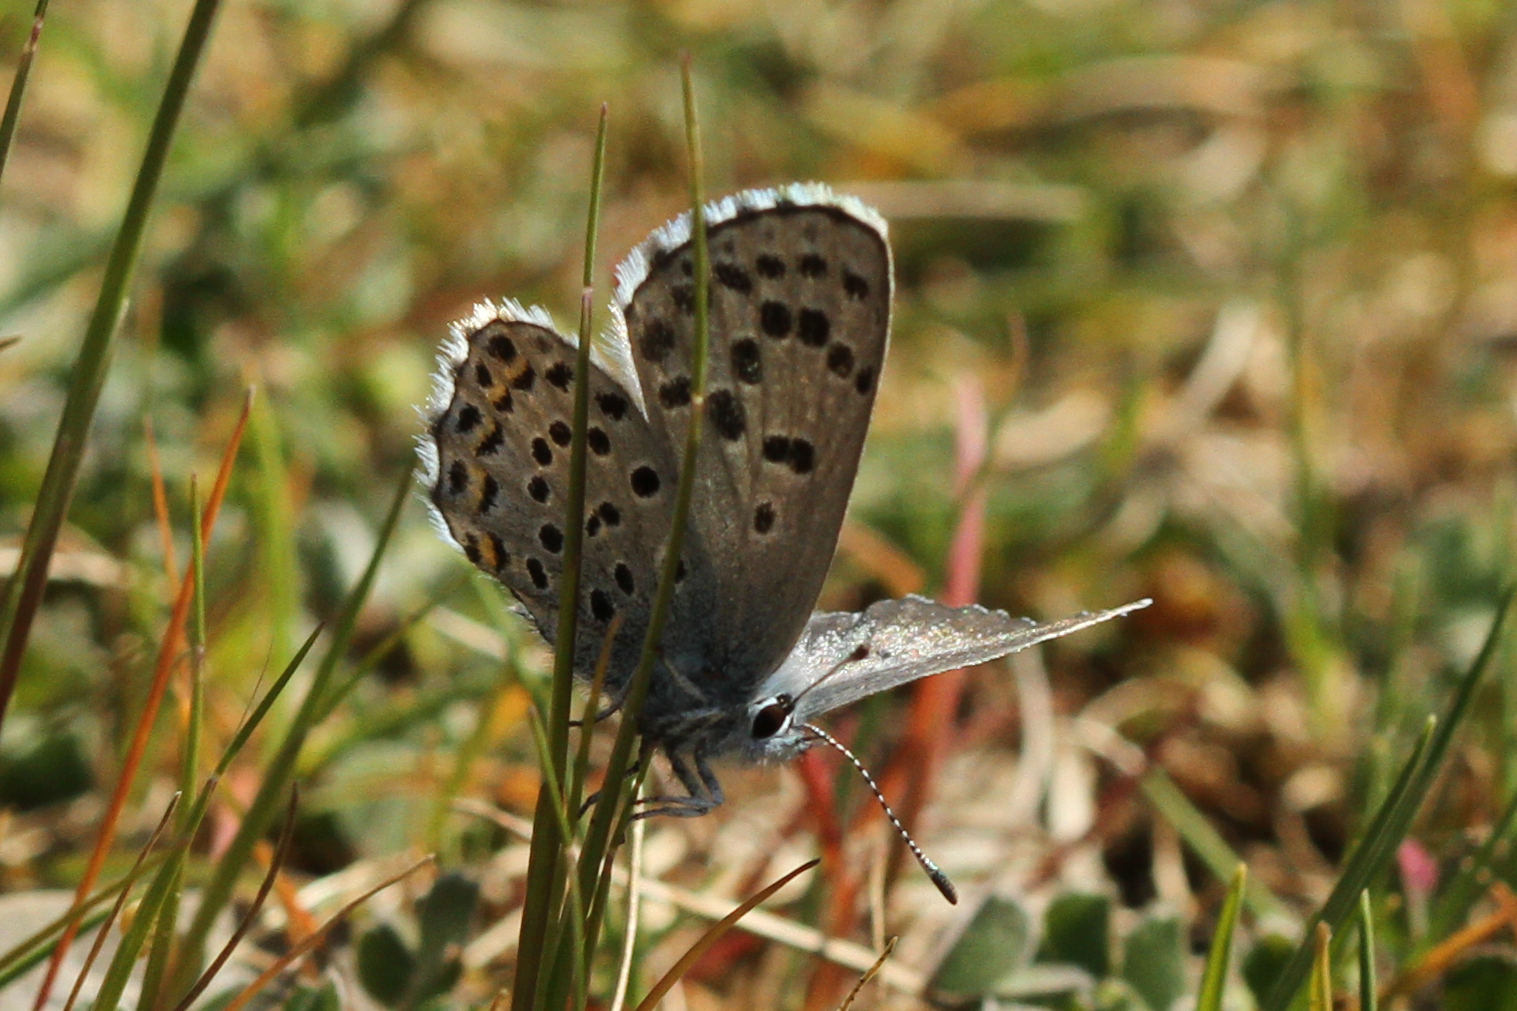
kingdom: Animalia
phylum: Arthropoda
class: Insecta
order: Lepidoptera
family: Lycaenidae
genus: Pseudophilotes
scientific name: Pseudophilotes baton
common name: Baton blue
